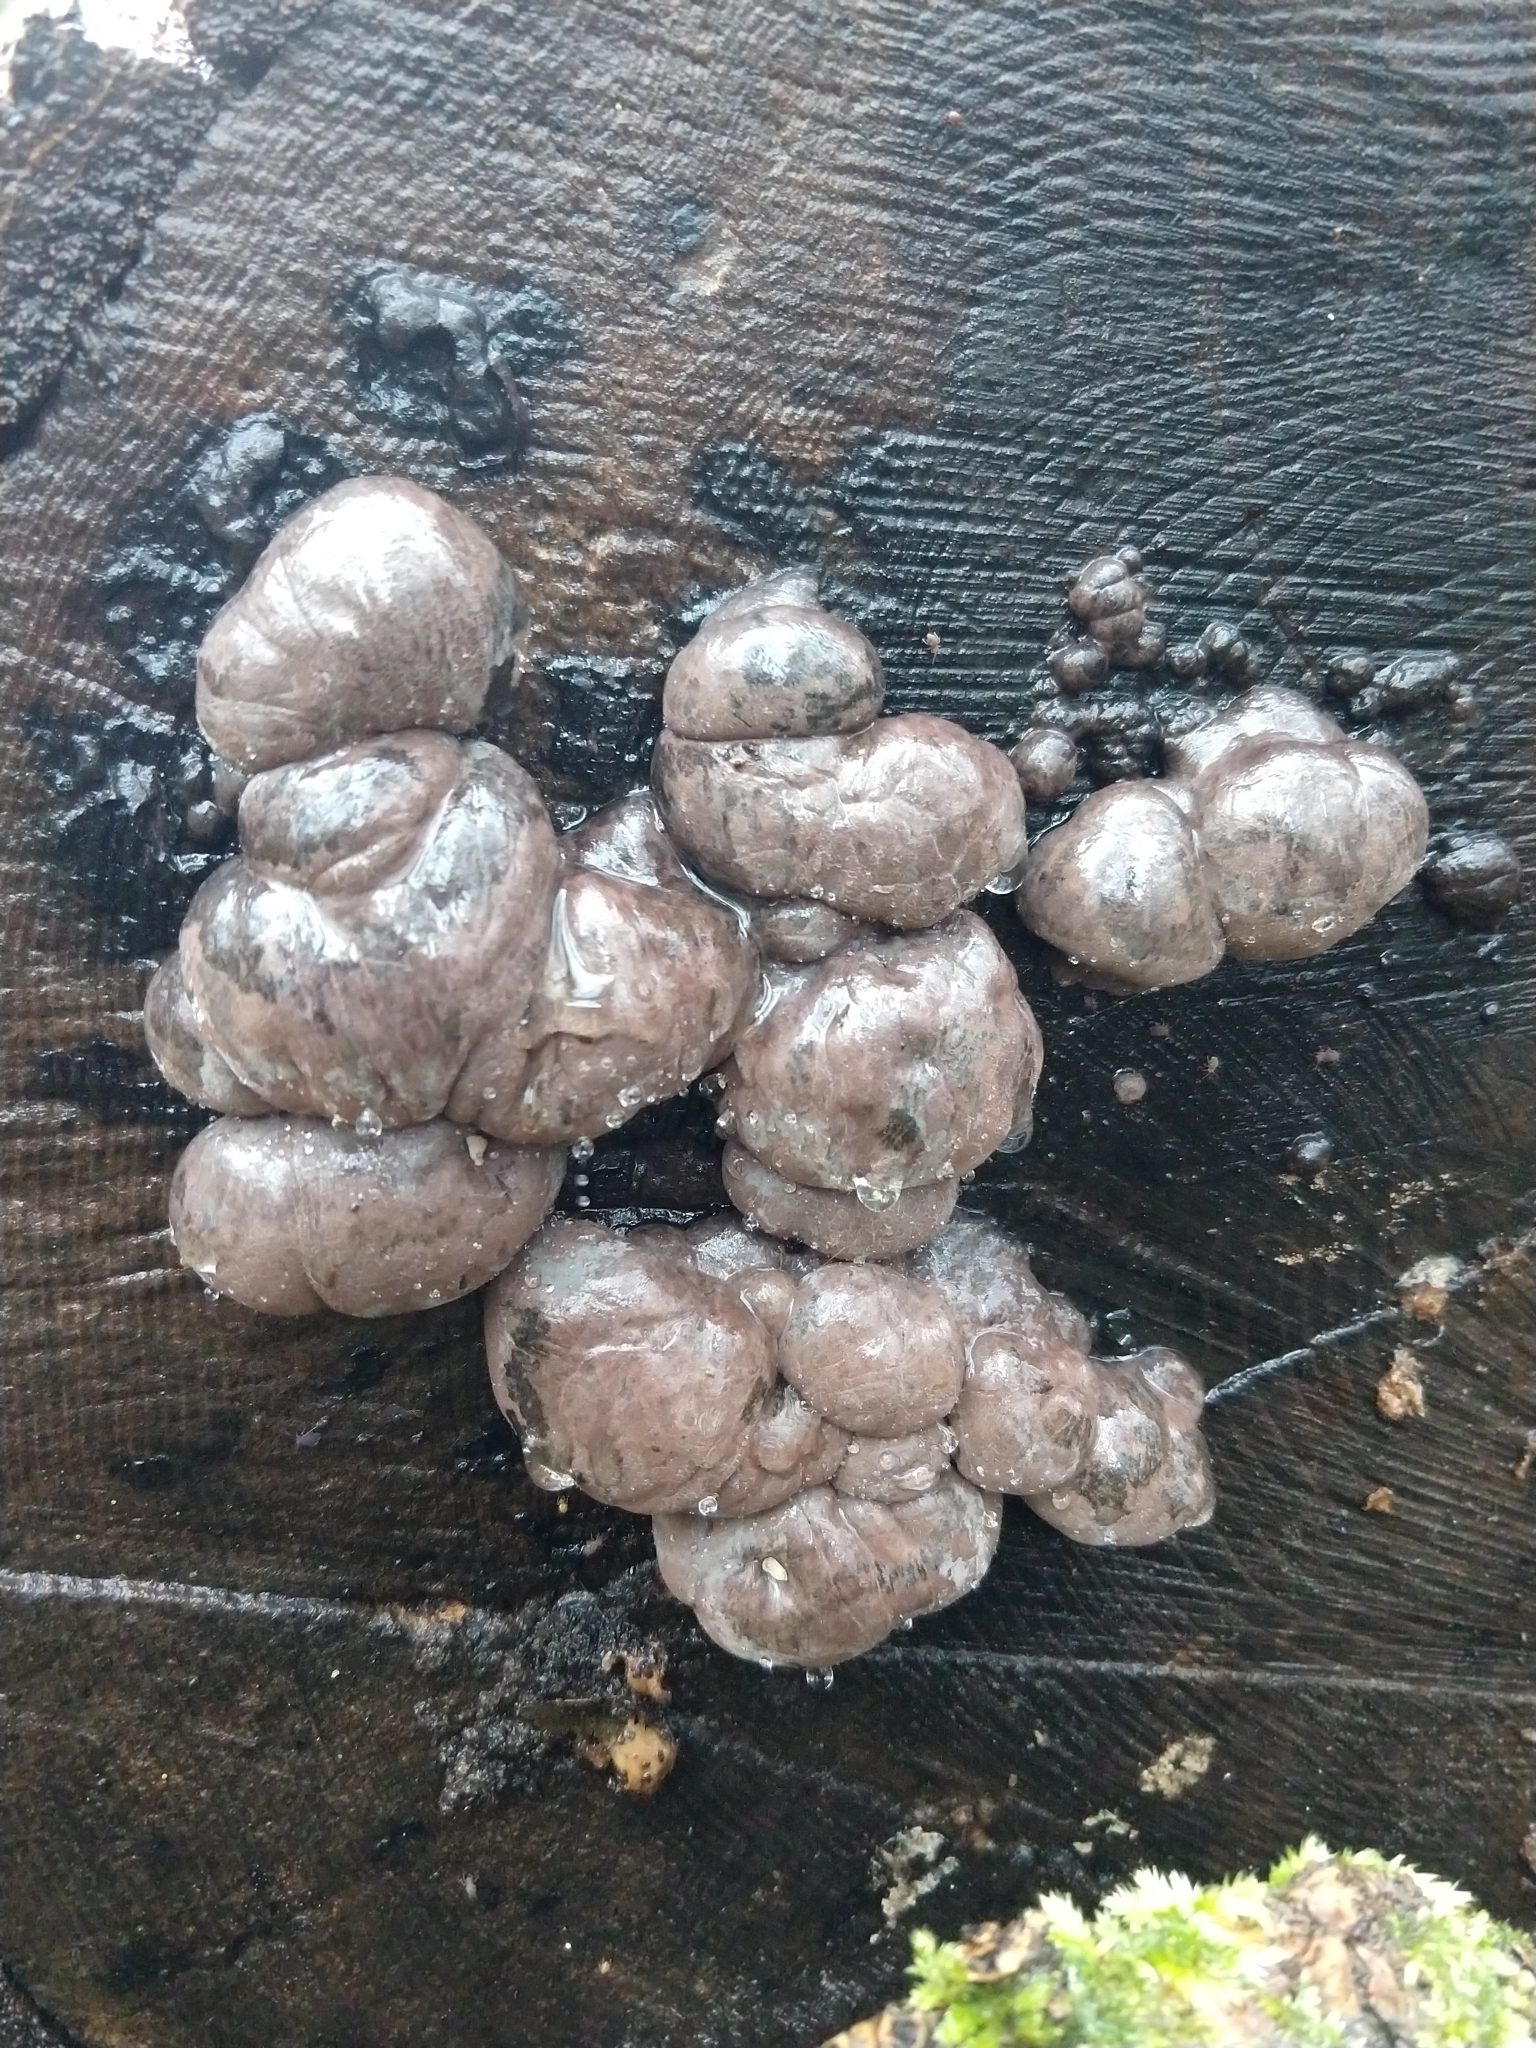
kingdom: Fungi
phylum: Ascomycota
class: Sordariomycetes
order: Xylariales
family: Hypoxylaceae
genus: Daldinia
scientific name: Daldinia concentrica
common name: Cramp balls
